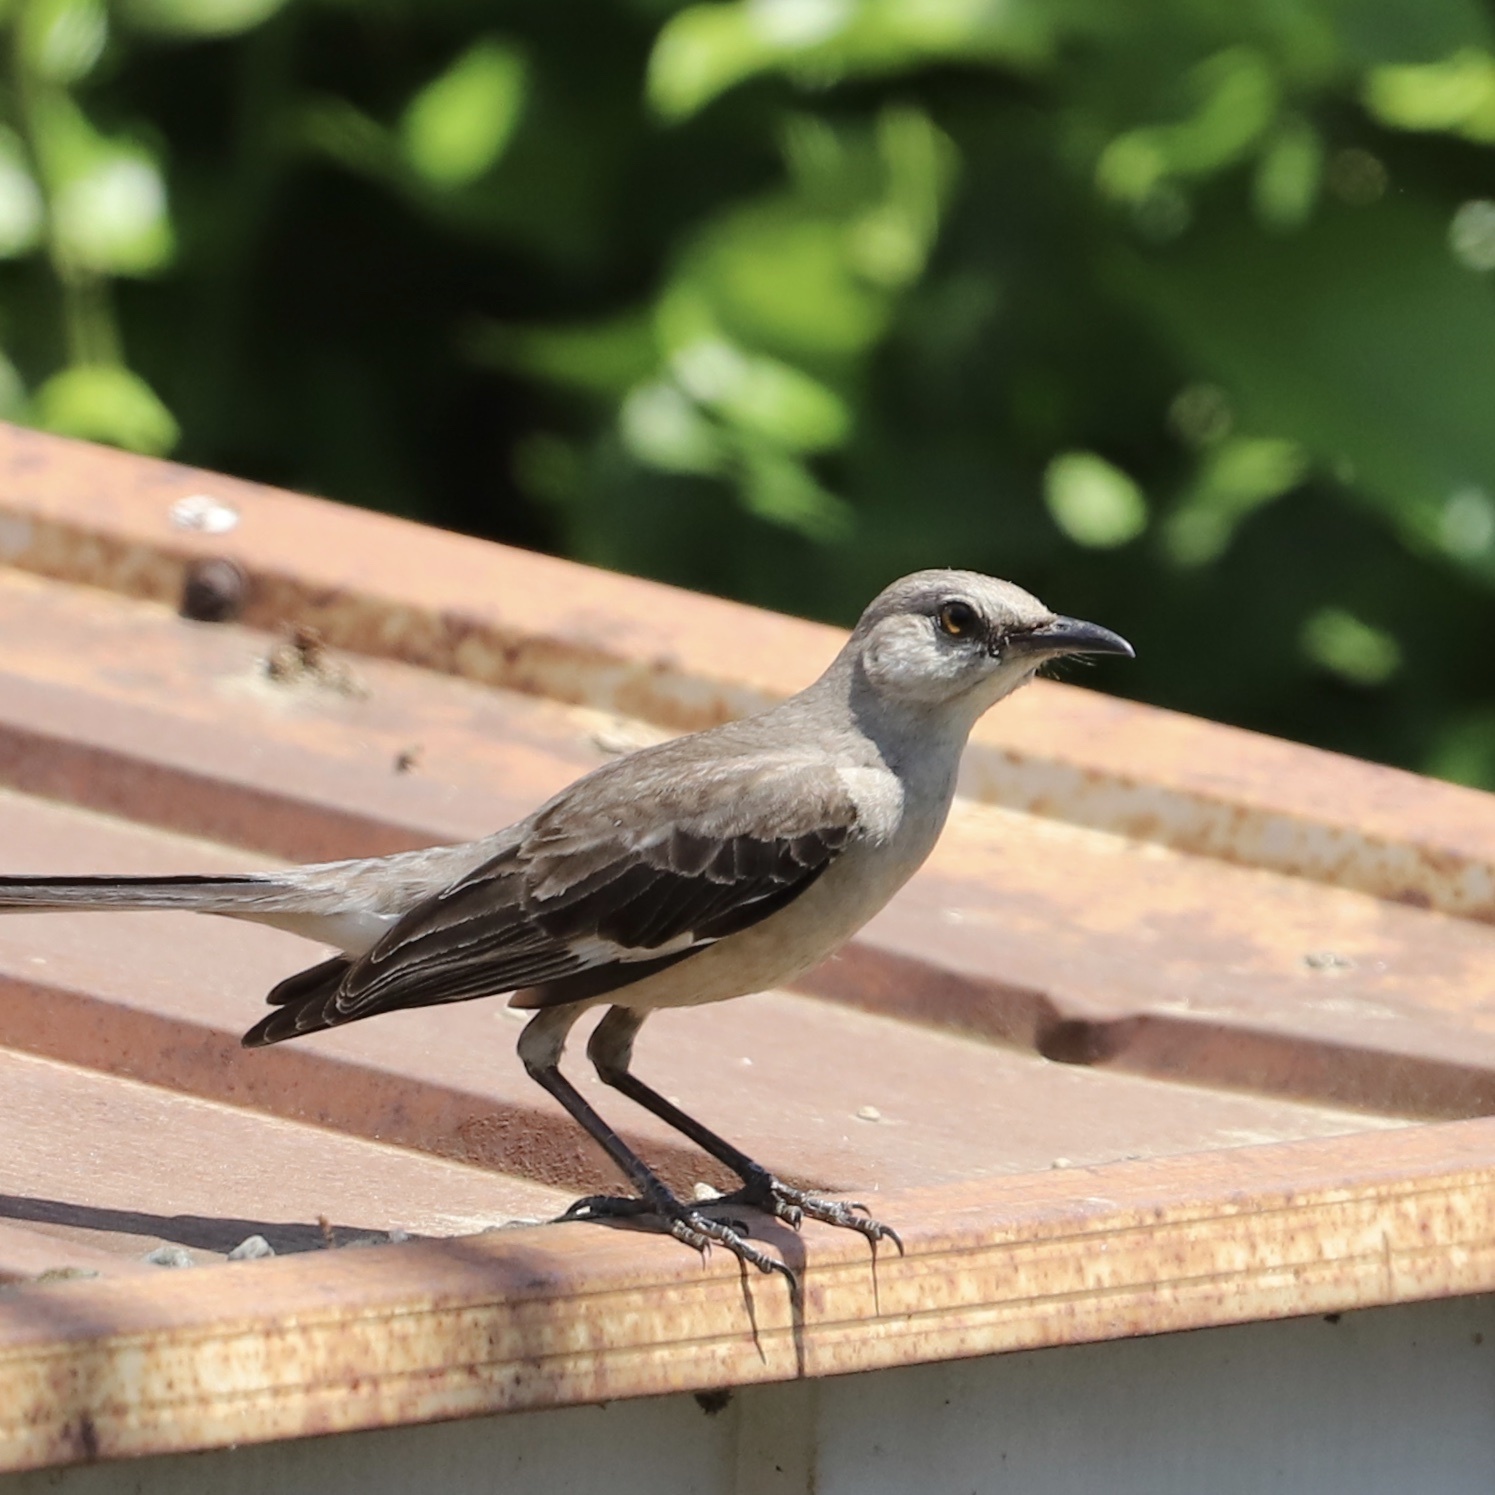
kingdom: Animalia
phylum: Chordata
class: Aves
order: Passeriformes
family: Mimidae
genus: Mimus
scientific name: Mimus polyglottos
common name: Northern mockingbird
